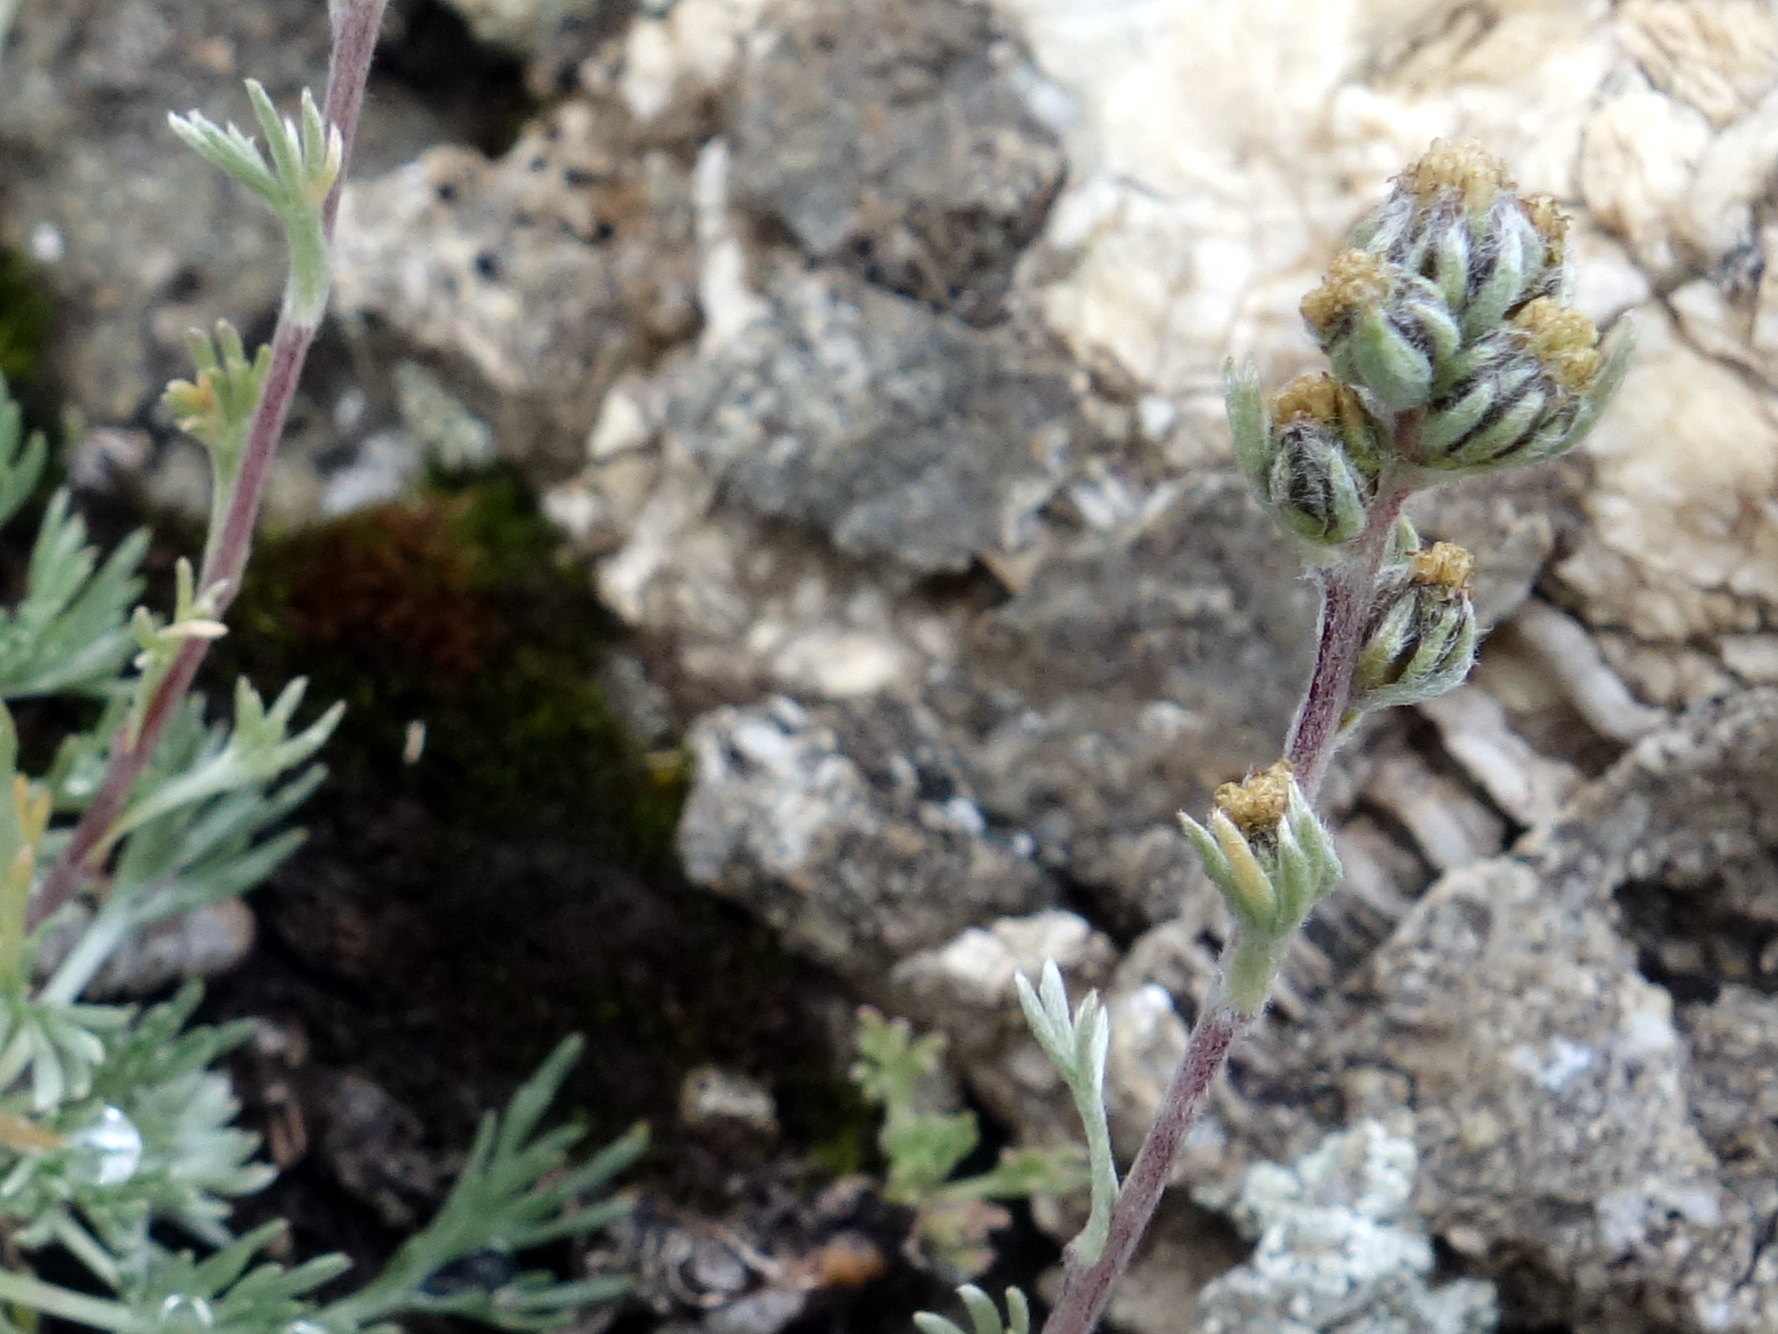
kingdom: Plantae
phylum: Tracheophyta
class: Magnoliopsida
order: Asterales
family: Asteraceae
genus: Artemisia
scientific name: Artemisia umbelliformis
